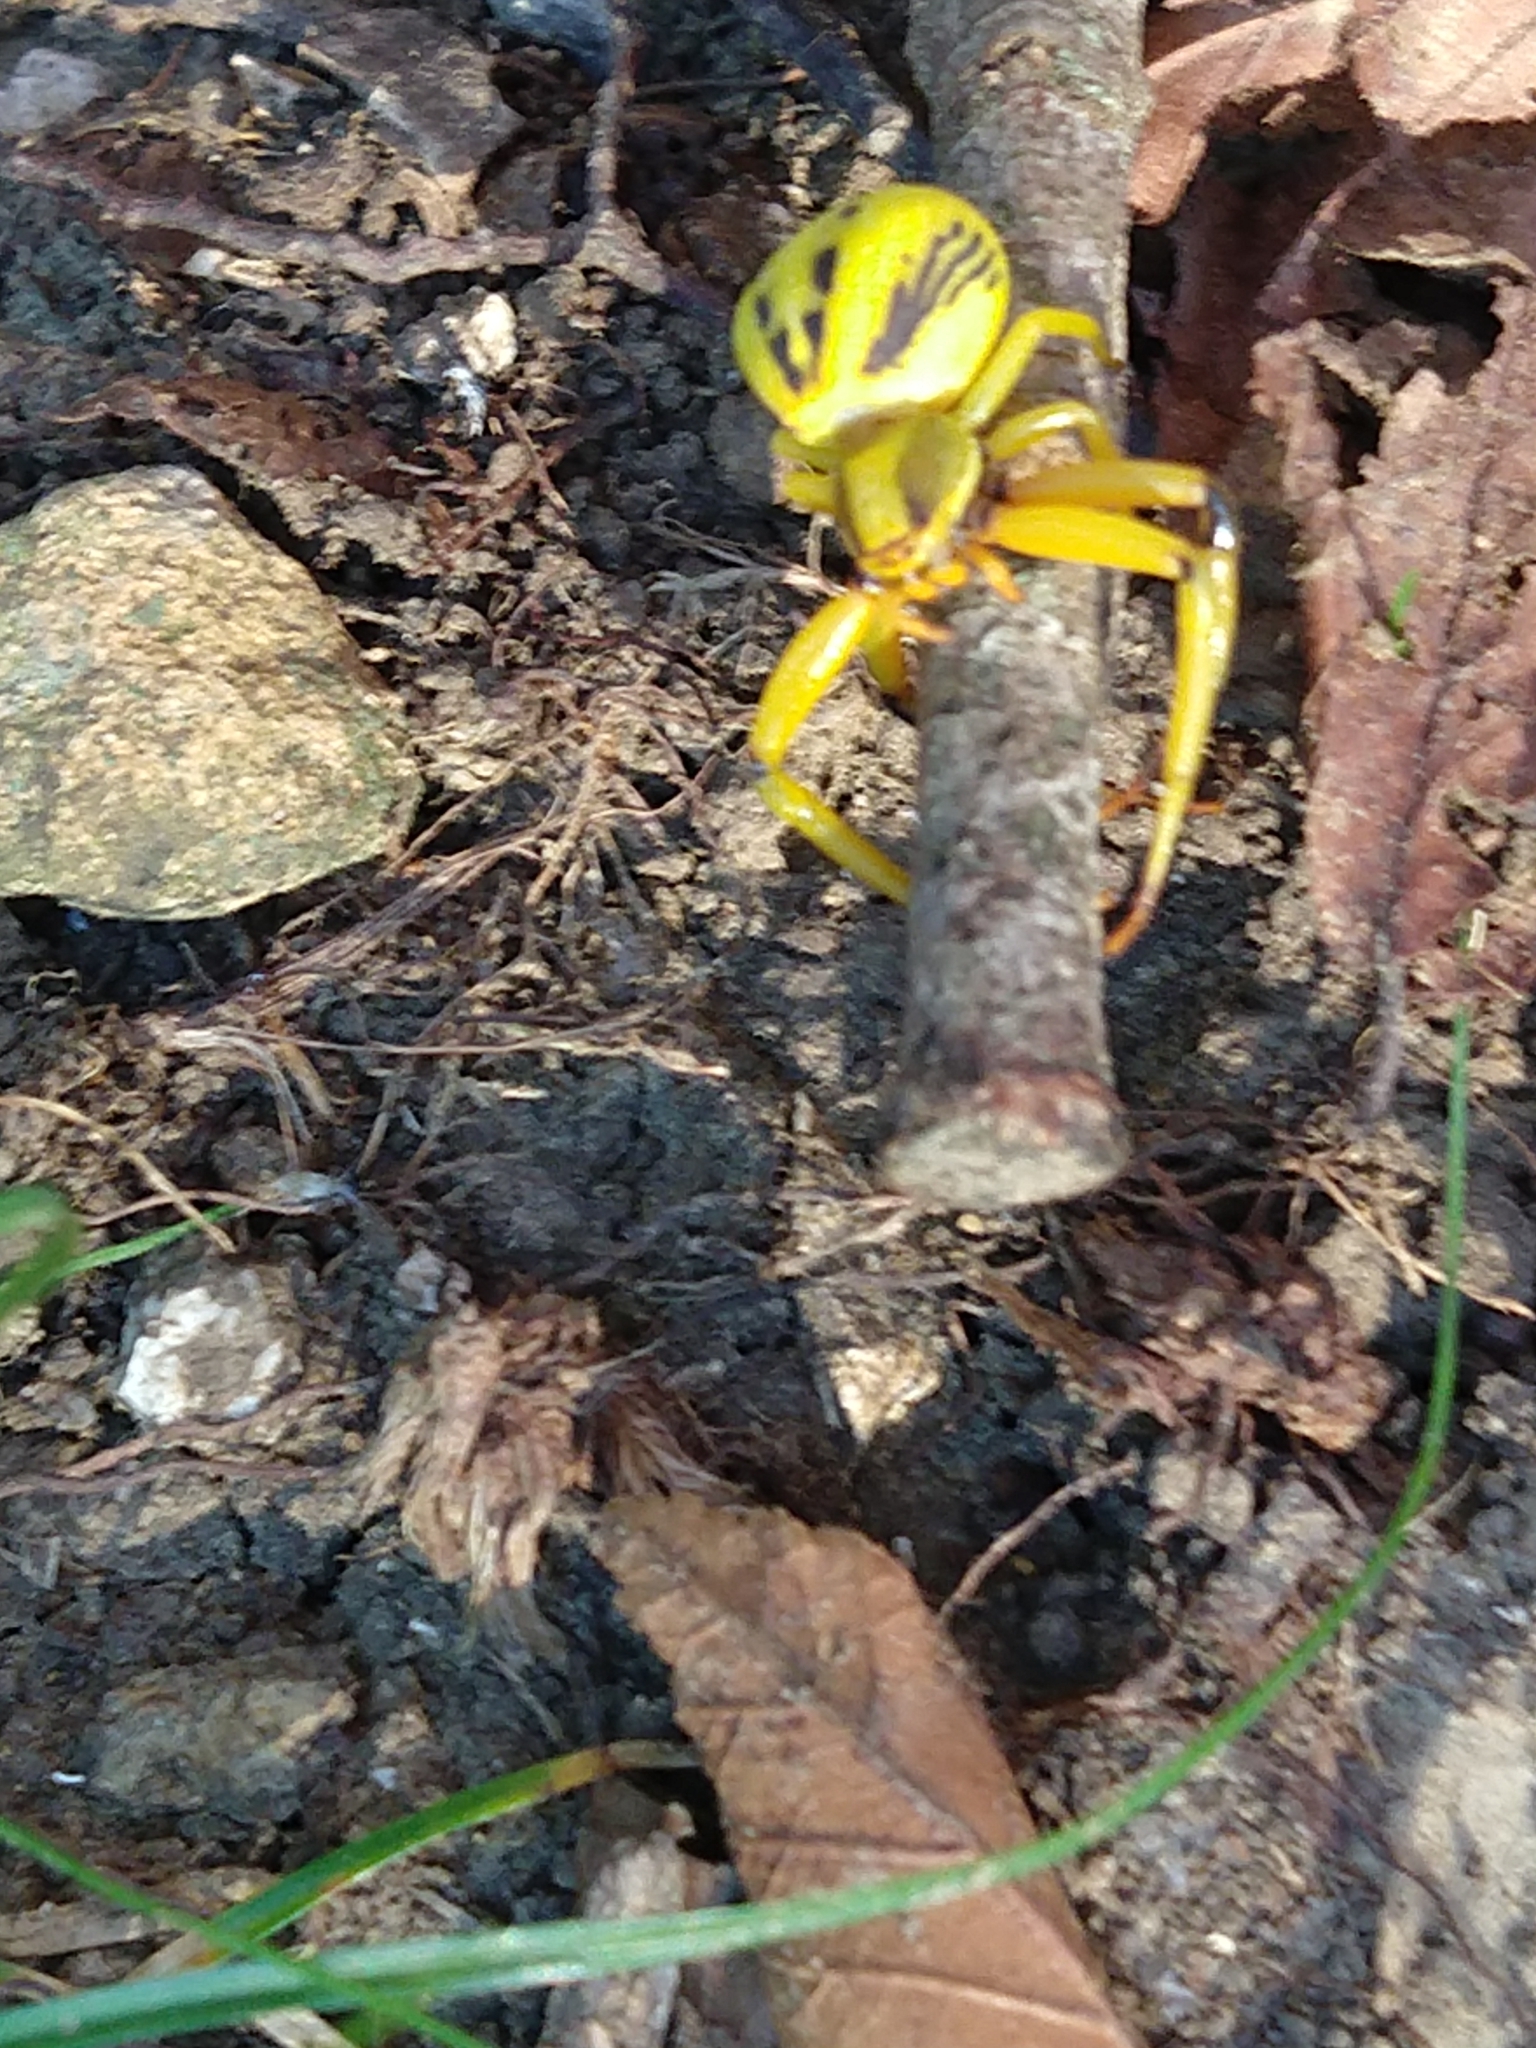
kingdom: Animalia
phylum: Arthropoda
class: Arachnida
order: Araneae
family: Thomisidae
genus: Misumenoides
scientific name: Misumenoides formosipes
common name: White-banded crab spider
